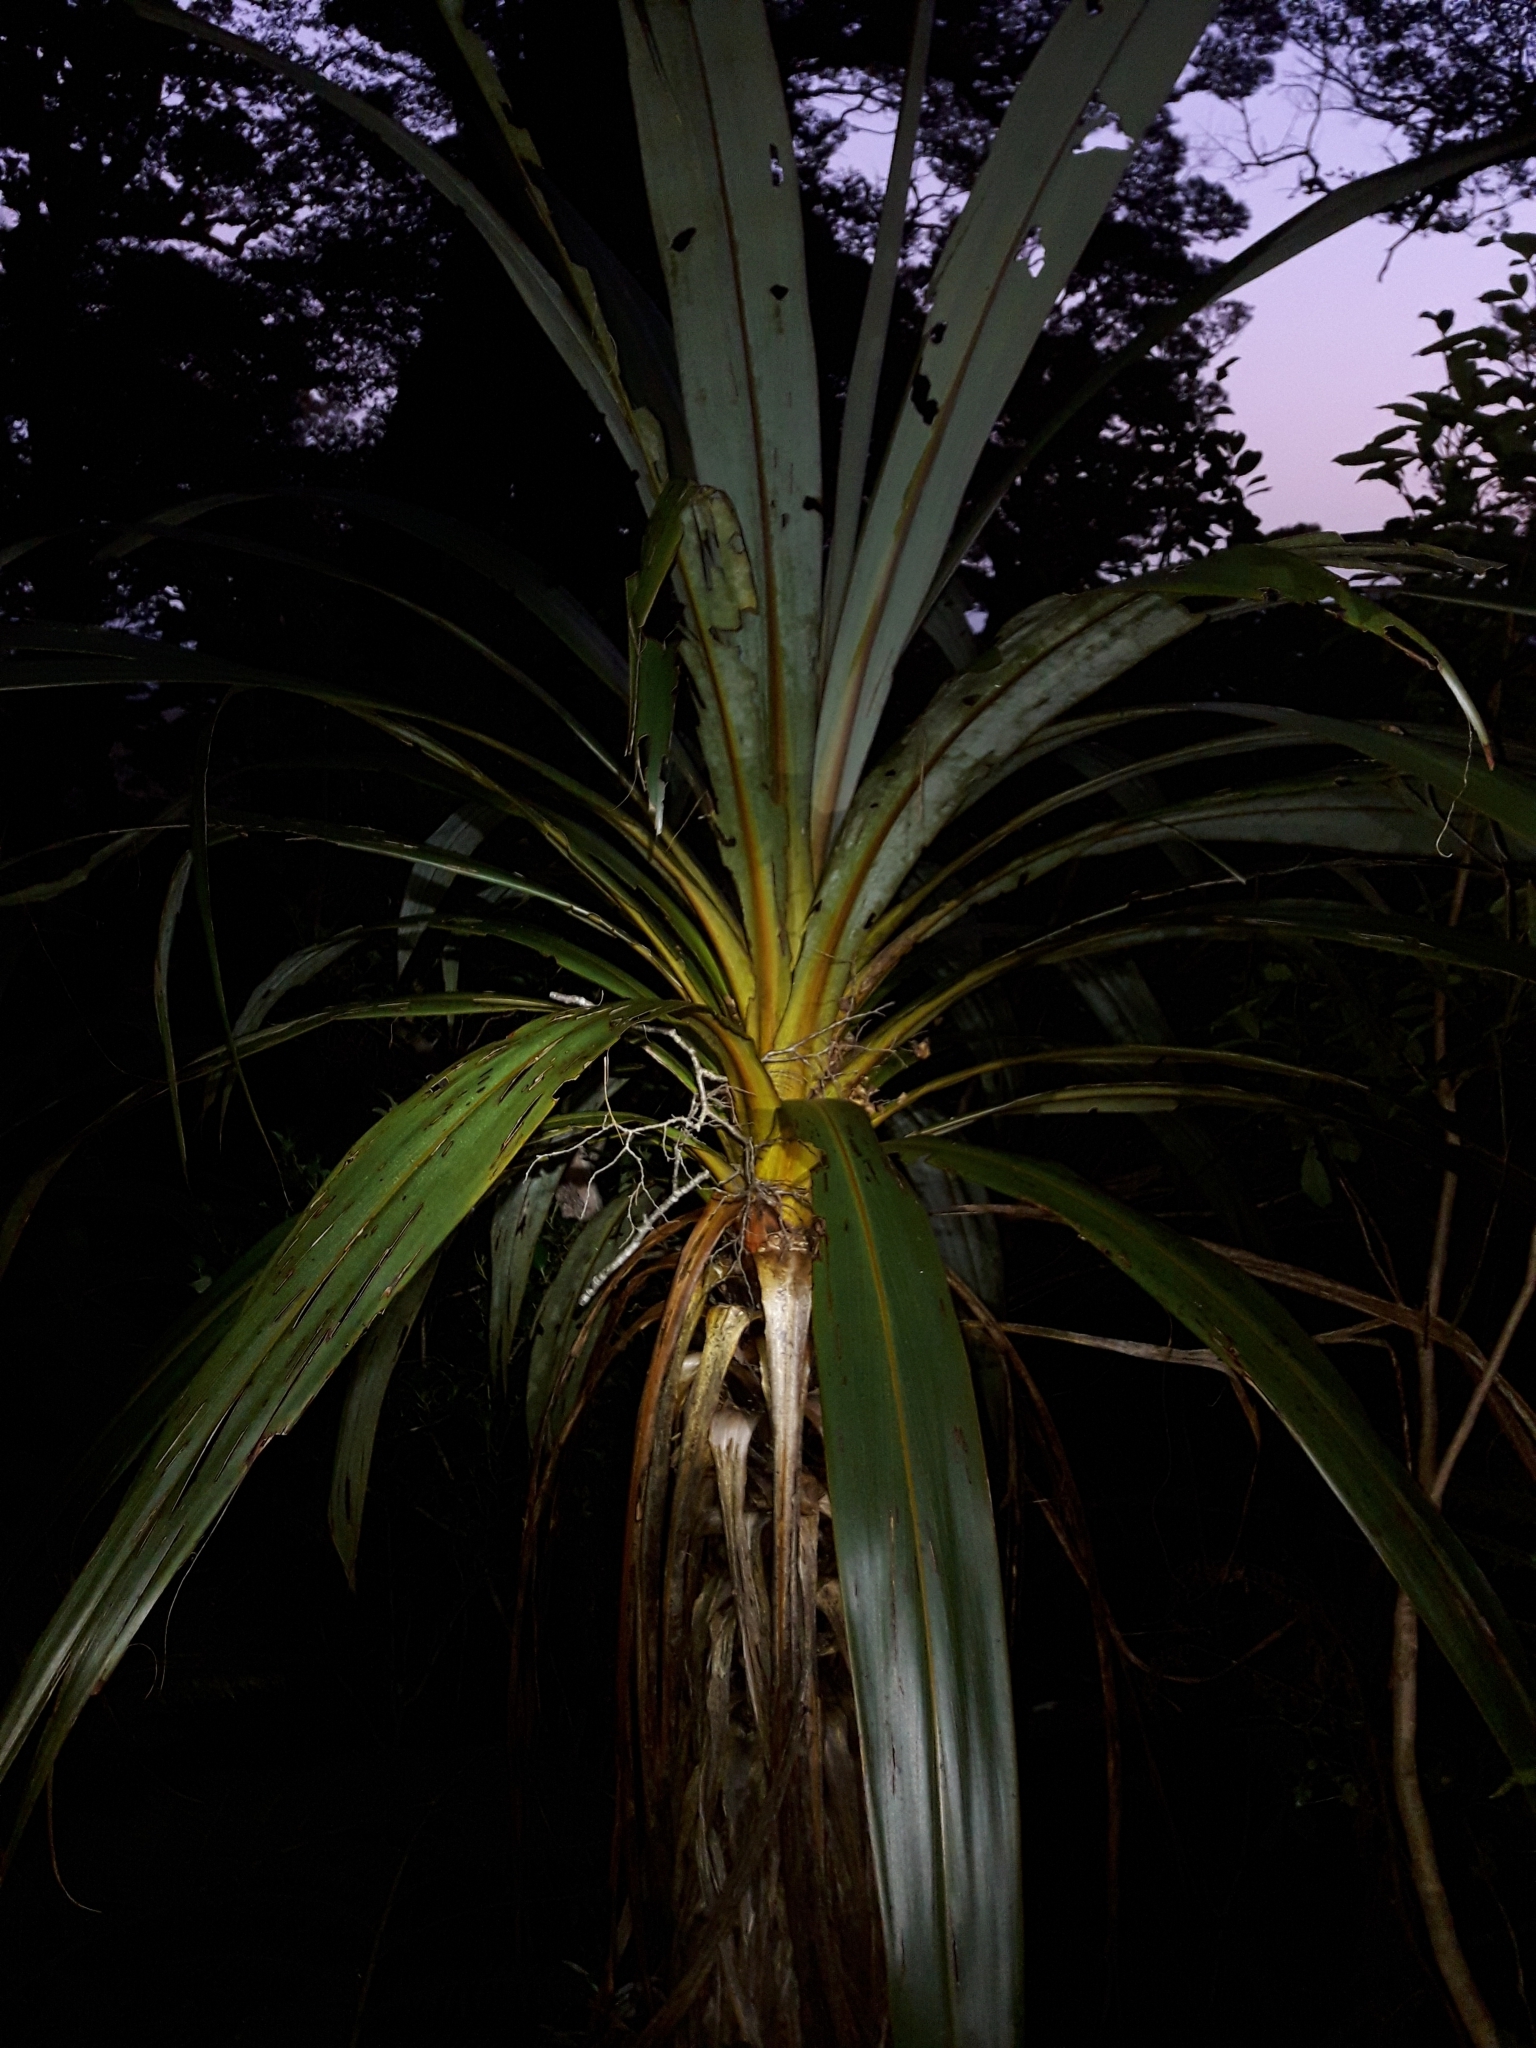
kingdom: Plantae
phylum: Tracheophyta
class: Liliopsida
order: Asparagales
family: Asparagaceae
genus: Cordyline
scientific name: Cordyline indivisa
